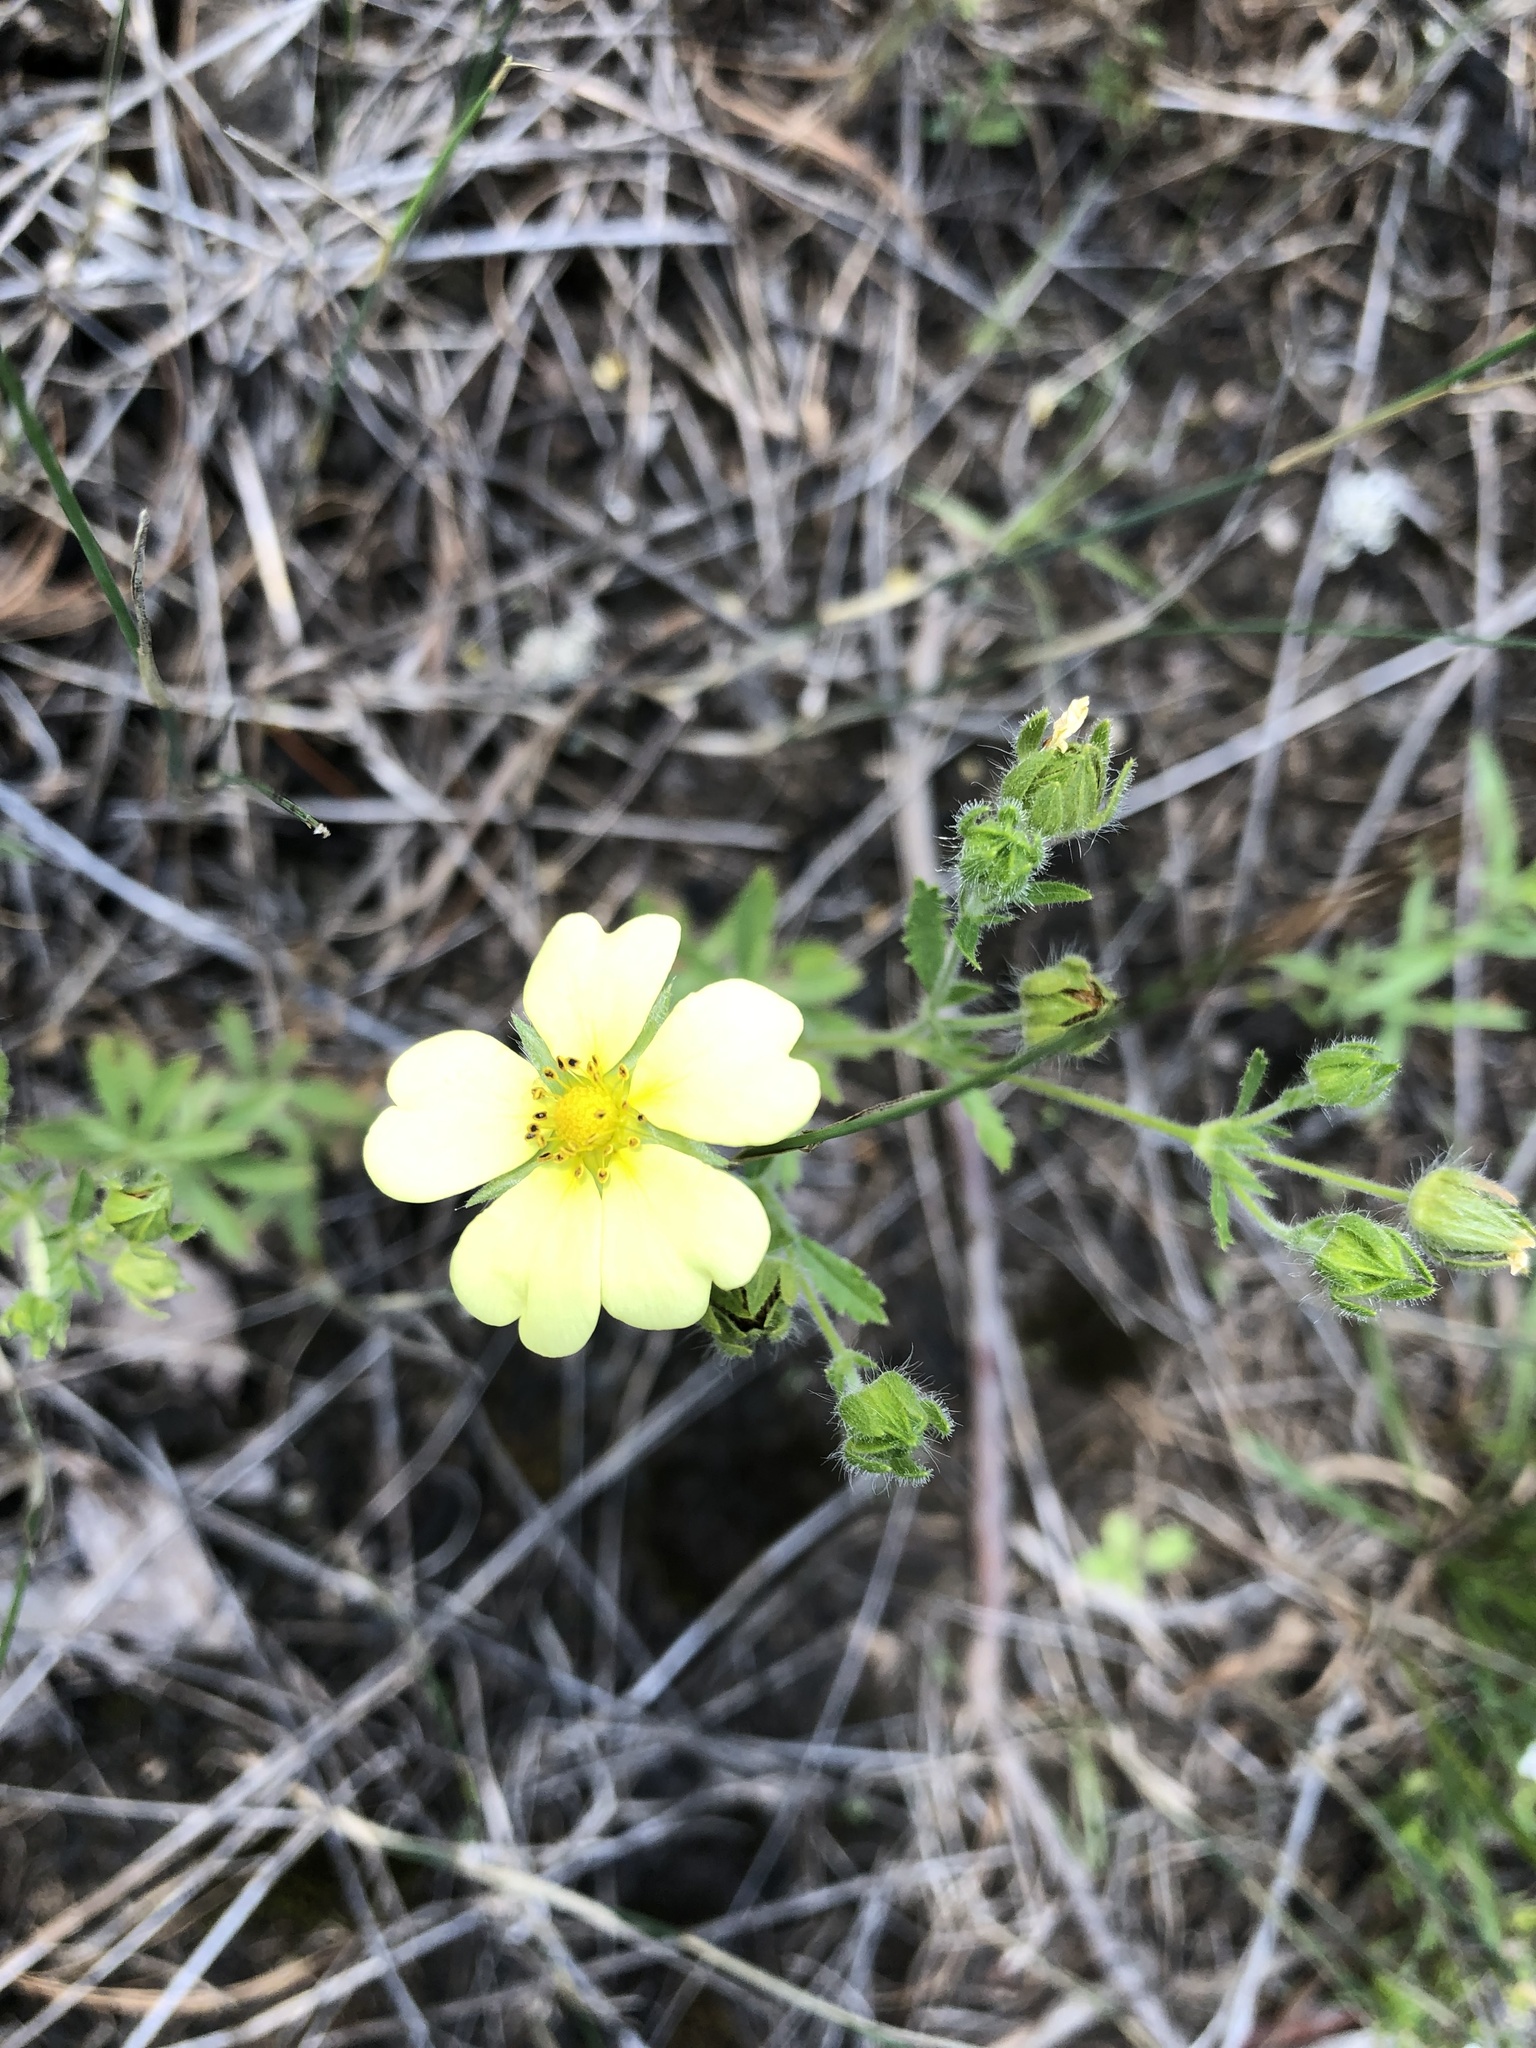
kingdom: Plantae
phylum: Tracheophyta
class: Magnoliopsida
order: Rosales
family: Rosaceae
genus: Potentilla
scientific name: Potentilla recta
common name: Sulphur cinquefoil
